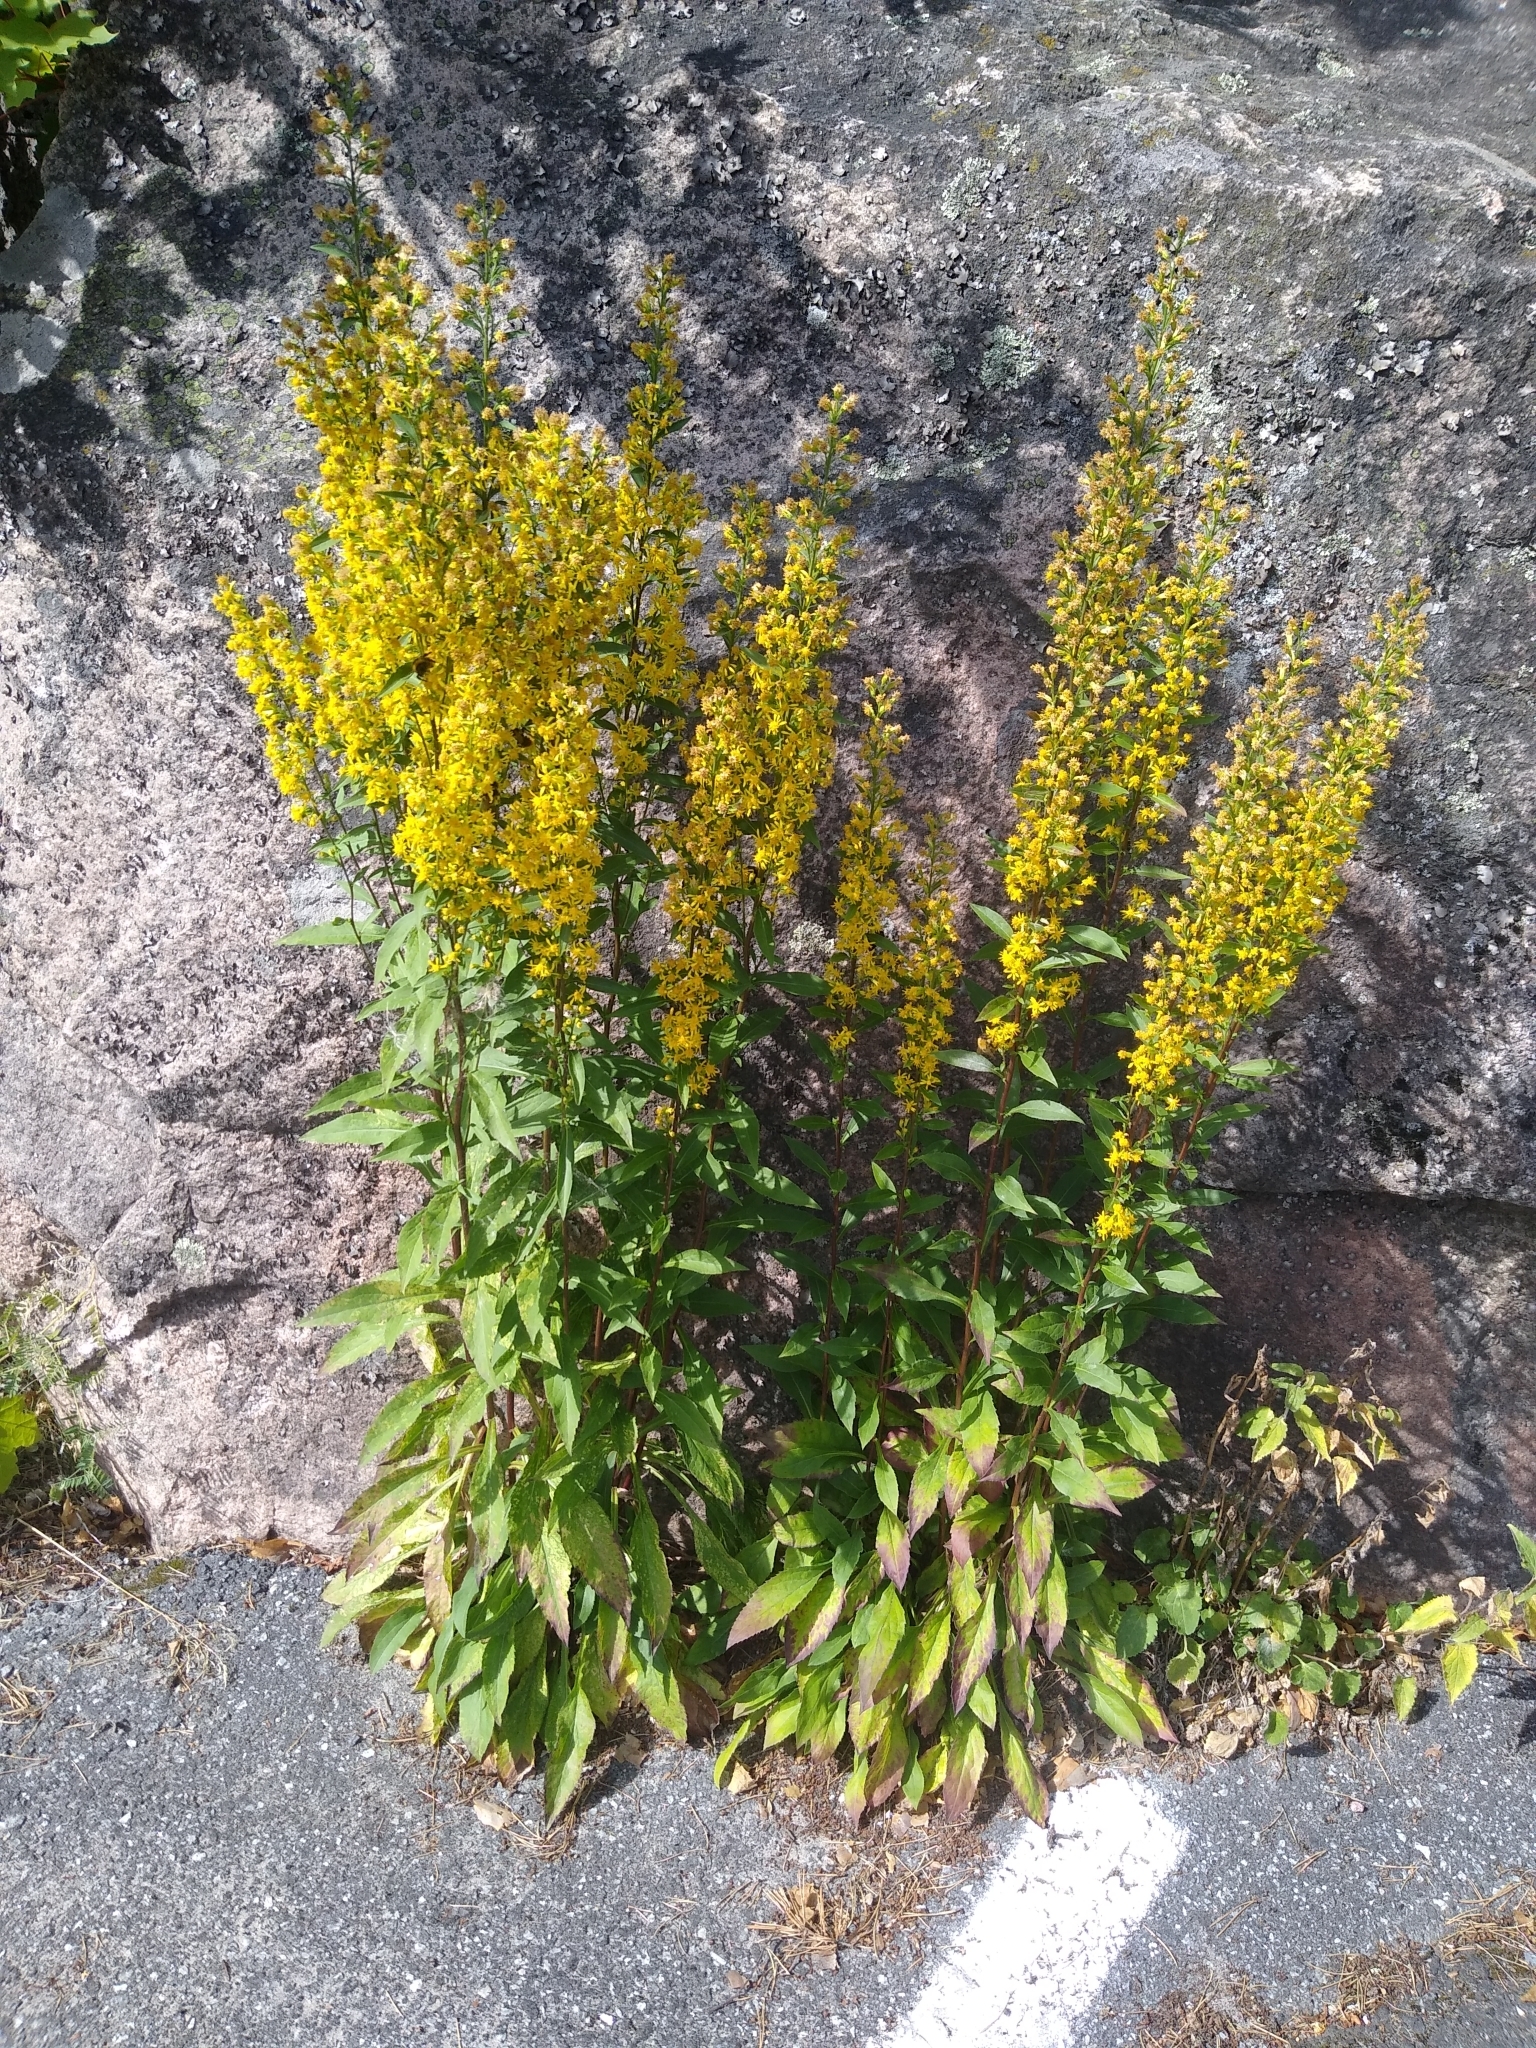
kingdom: Plantae
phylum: Tracheophyta
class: Magnoliopsida
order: Asterales
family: Asteraceae
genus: Solidago
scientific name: Solidago virgaurea
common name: Goldenrod
